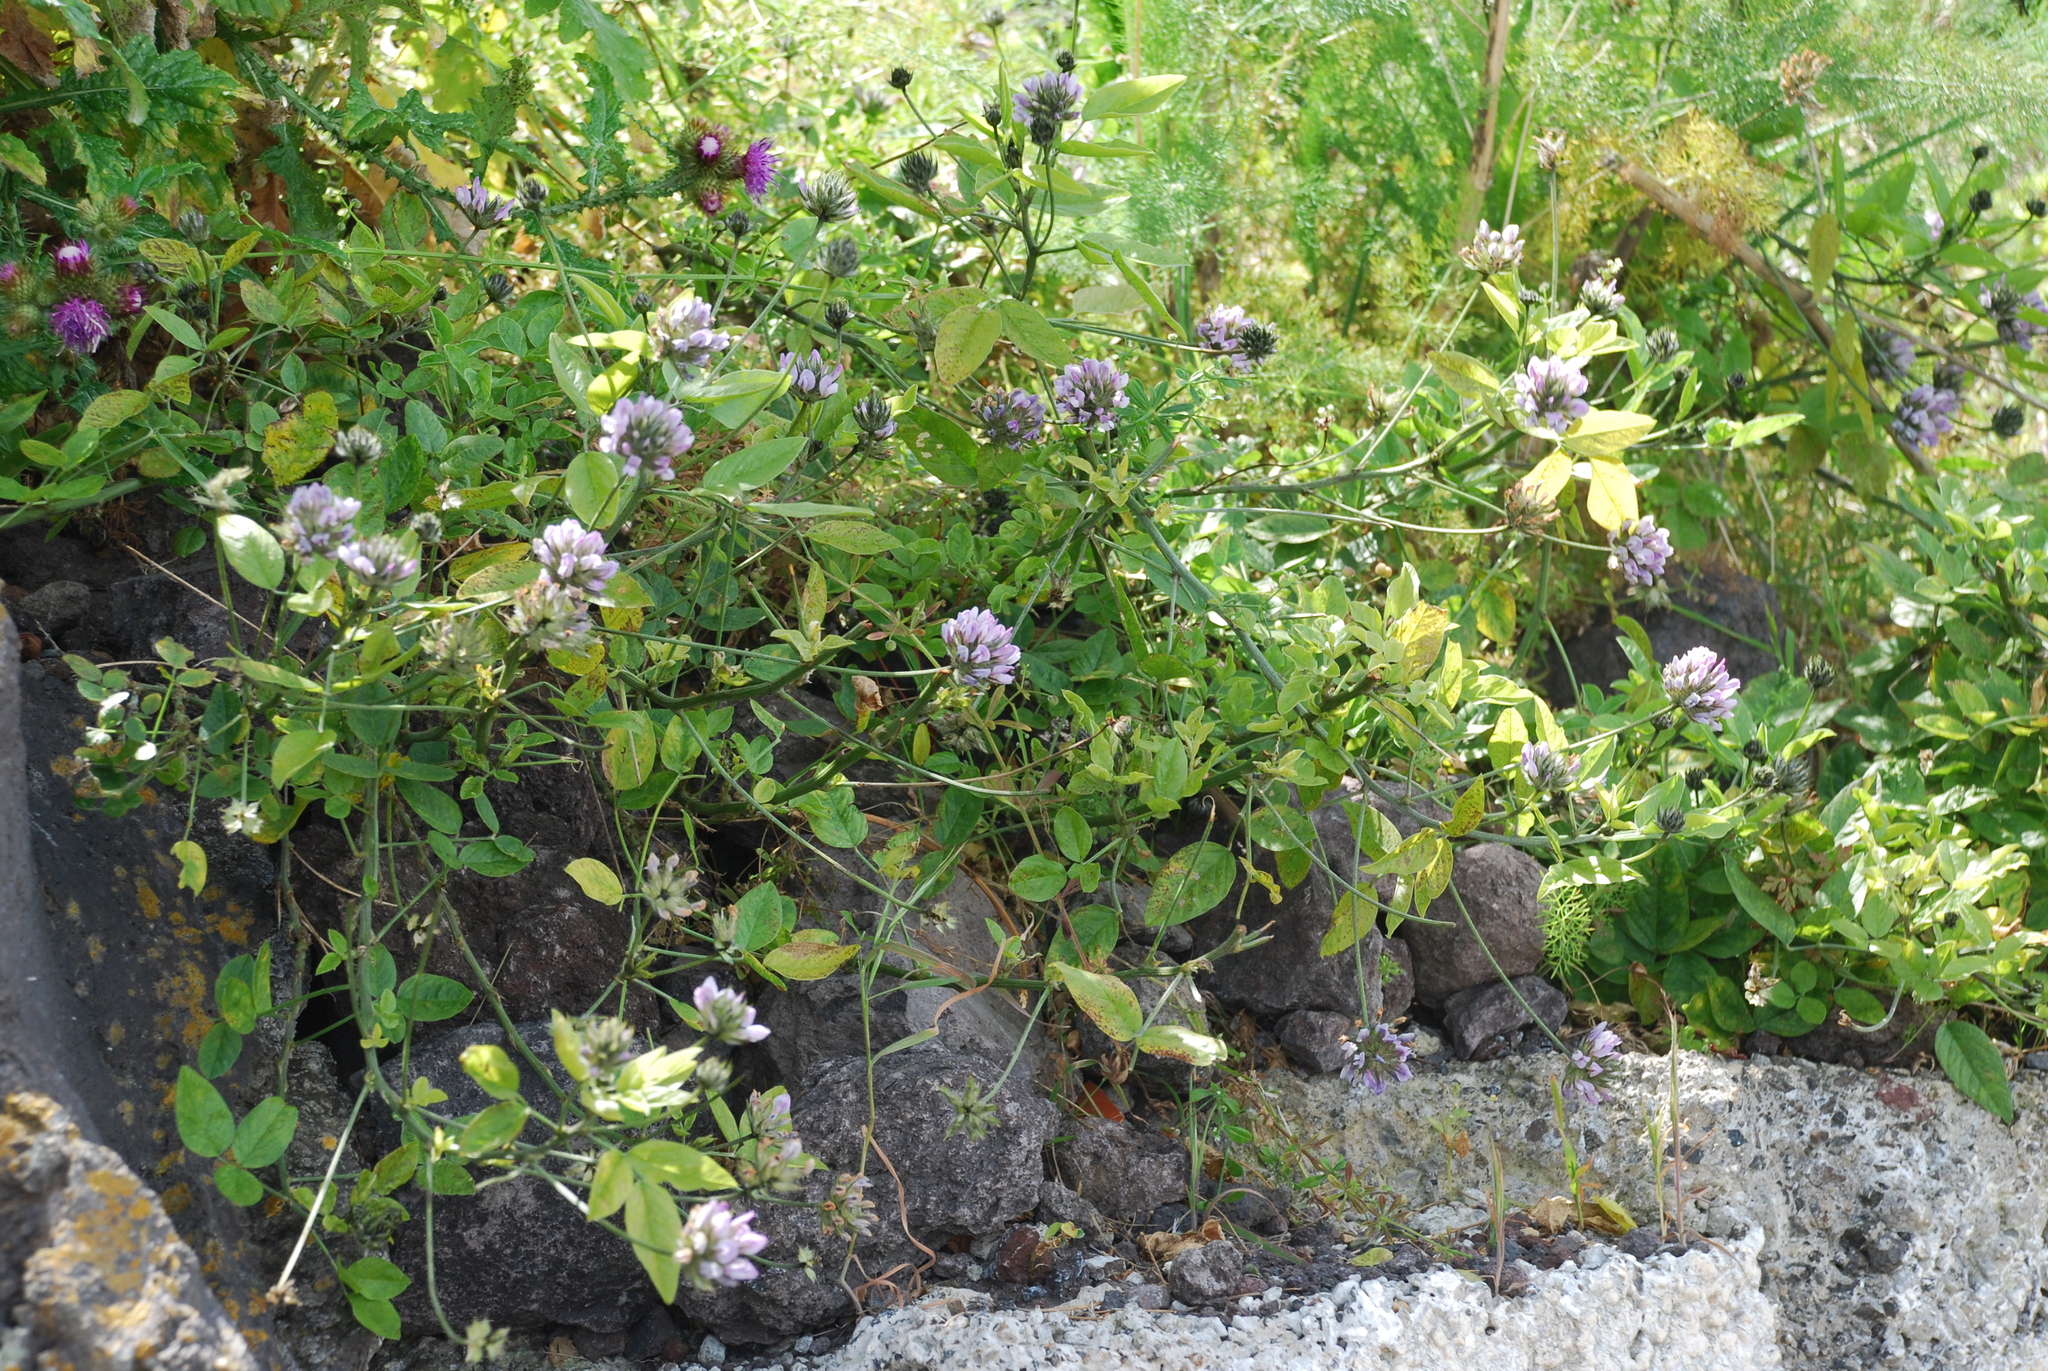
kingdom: Plantae
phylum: Tracheophyta
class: Magnoliopsida
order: Fabales
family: Fabaceae
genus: Bituminaria
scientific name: Bituminaria bituminosa
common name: Arabian pea
